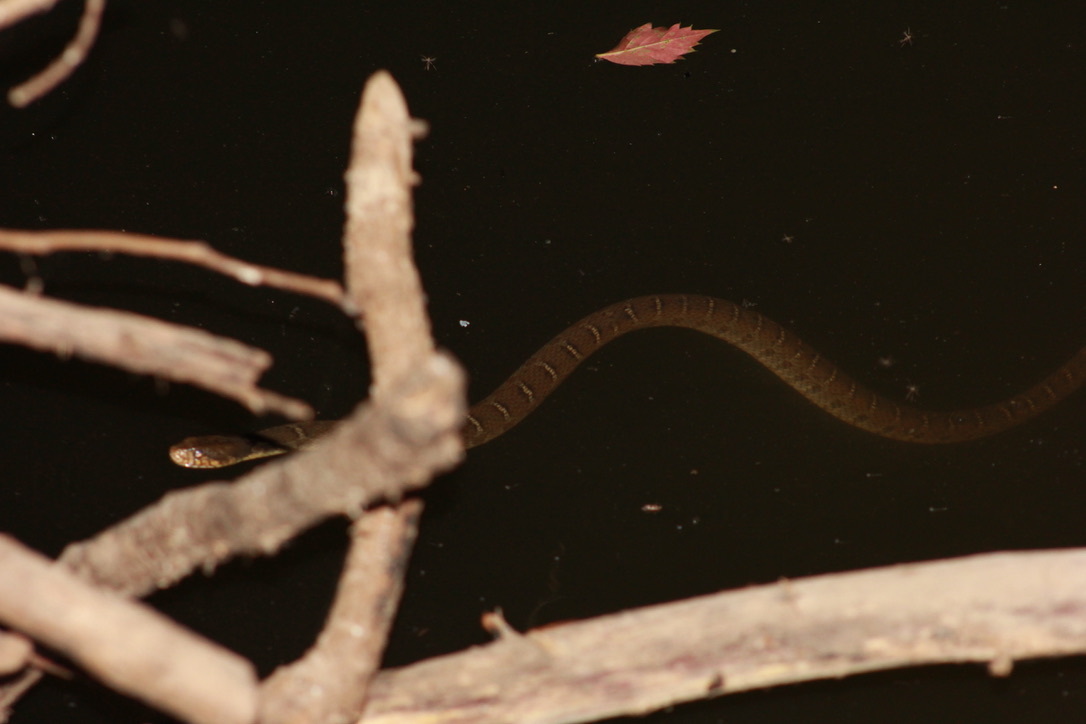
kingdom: Animalia
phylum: Chordata
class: Squamata
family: Colubridae
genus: Nerodia
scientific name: Nerodia erythrogaster
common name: Plainbelly water snake
